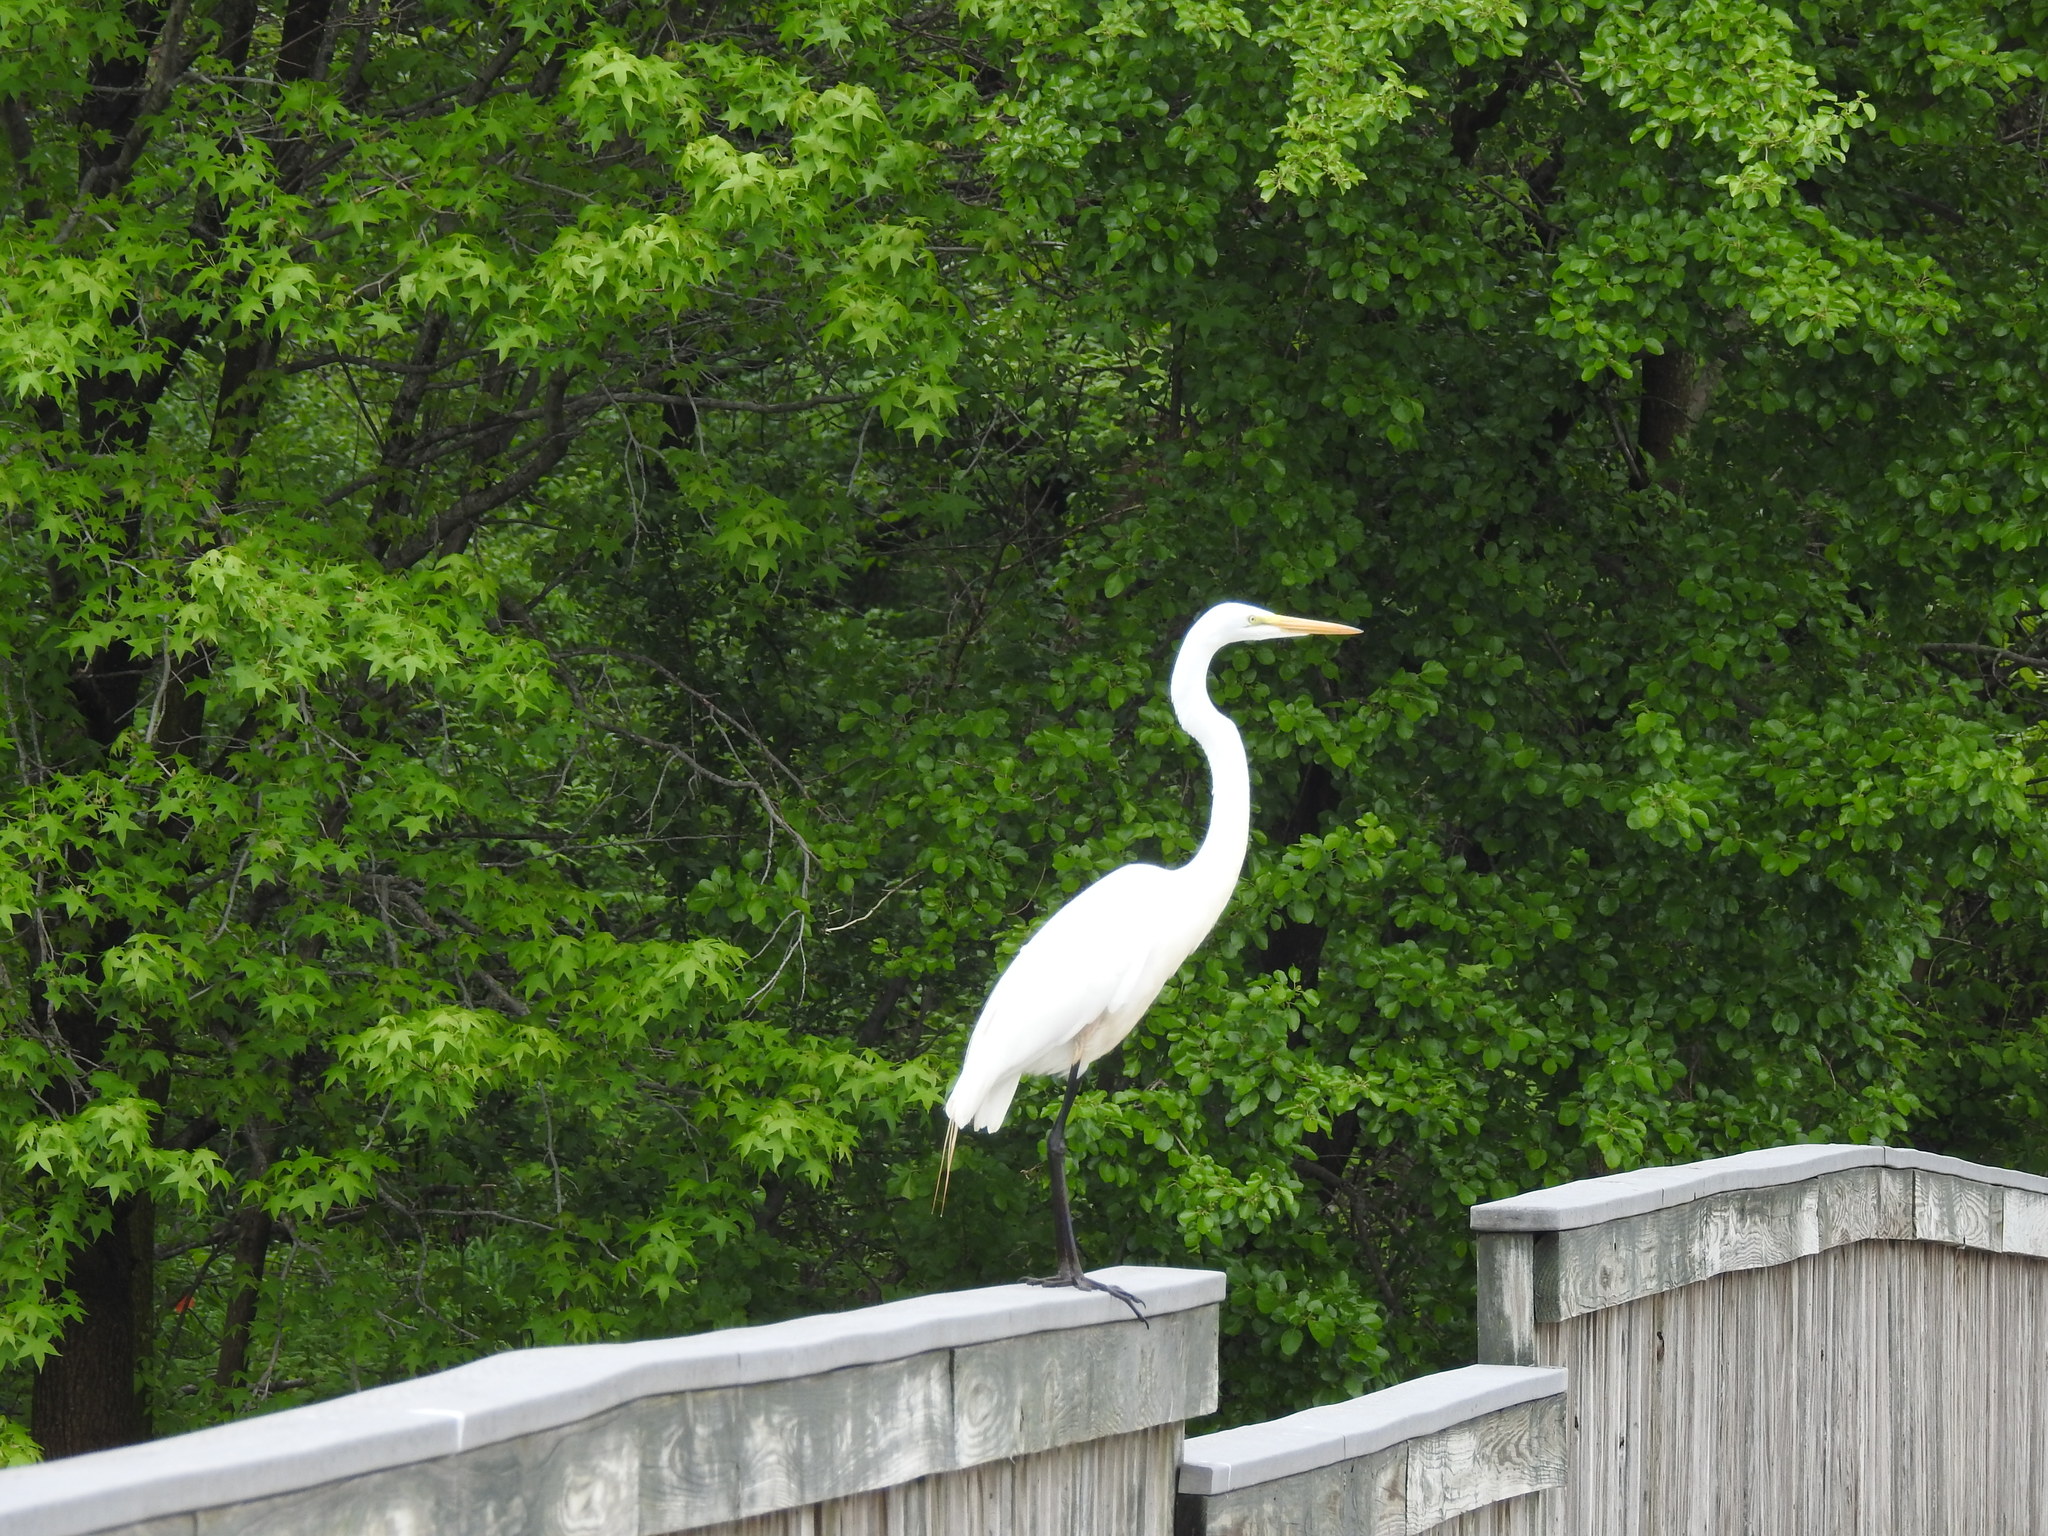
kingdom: Animalia
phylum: Chordata
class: Aves
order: Pelecaniformes
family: Ardeidae
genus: Ardea
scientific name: Ardea alba
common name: Great egret
